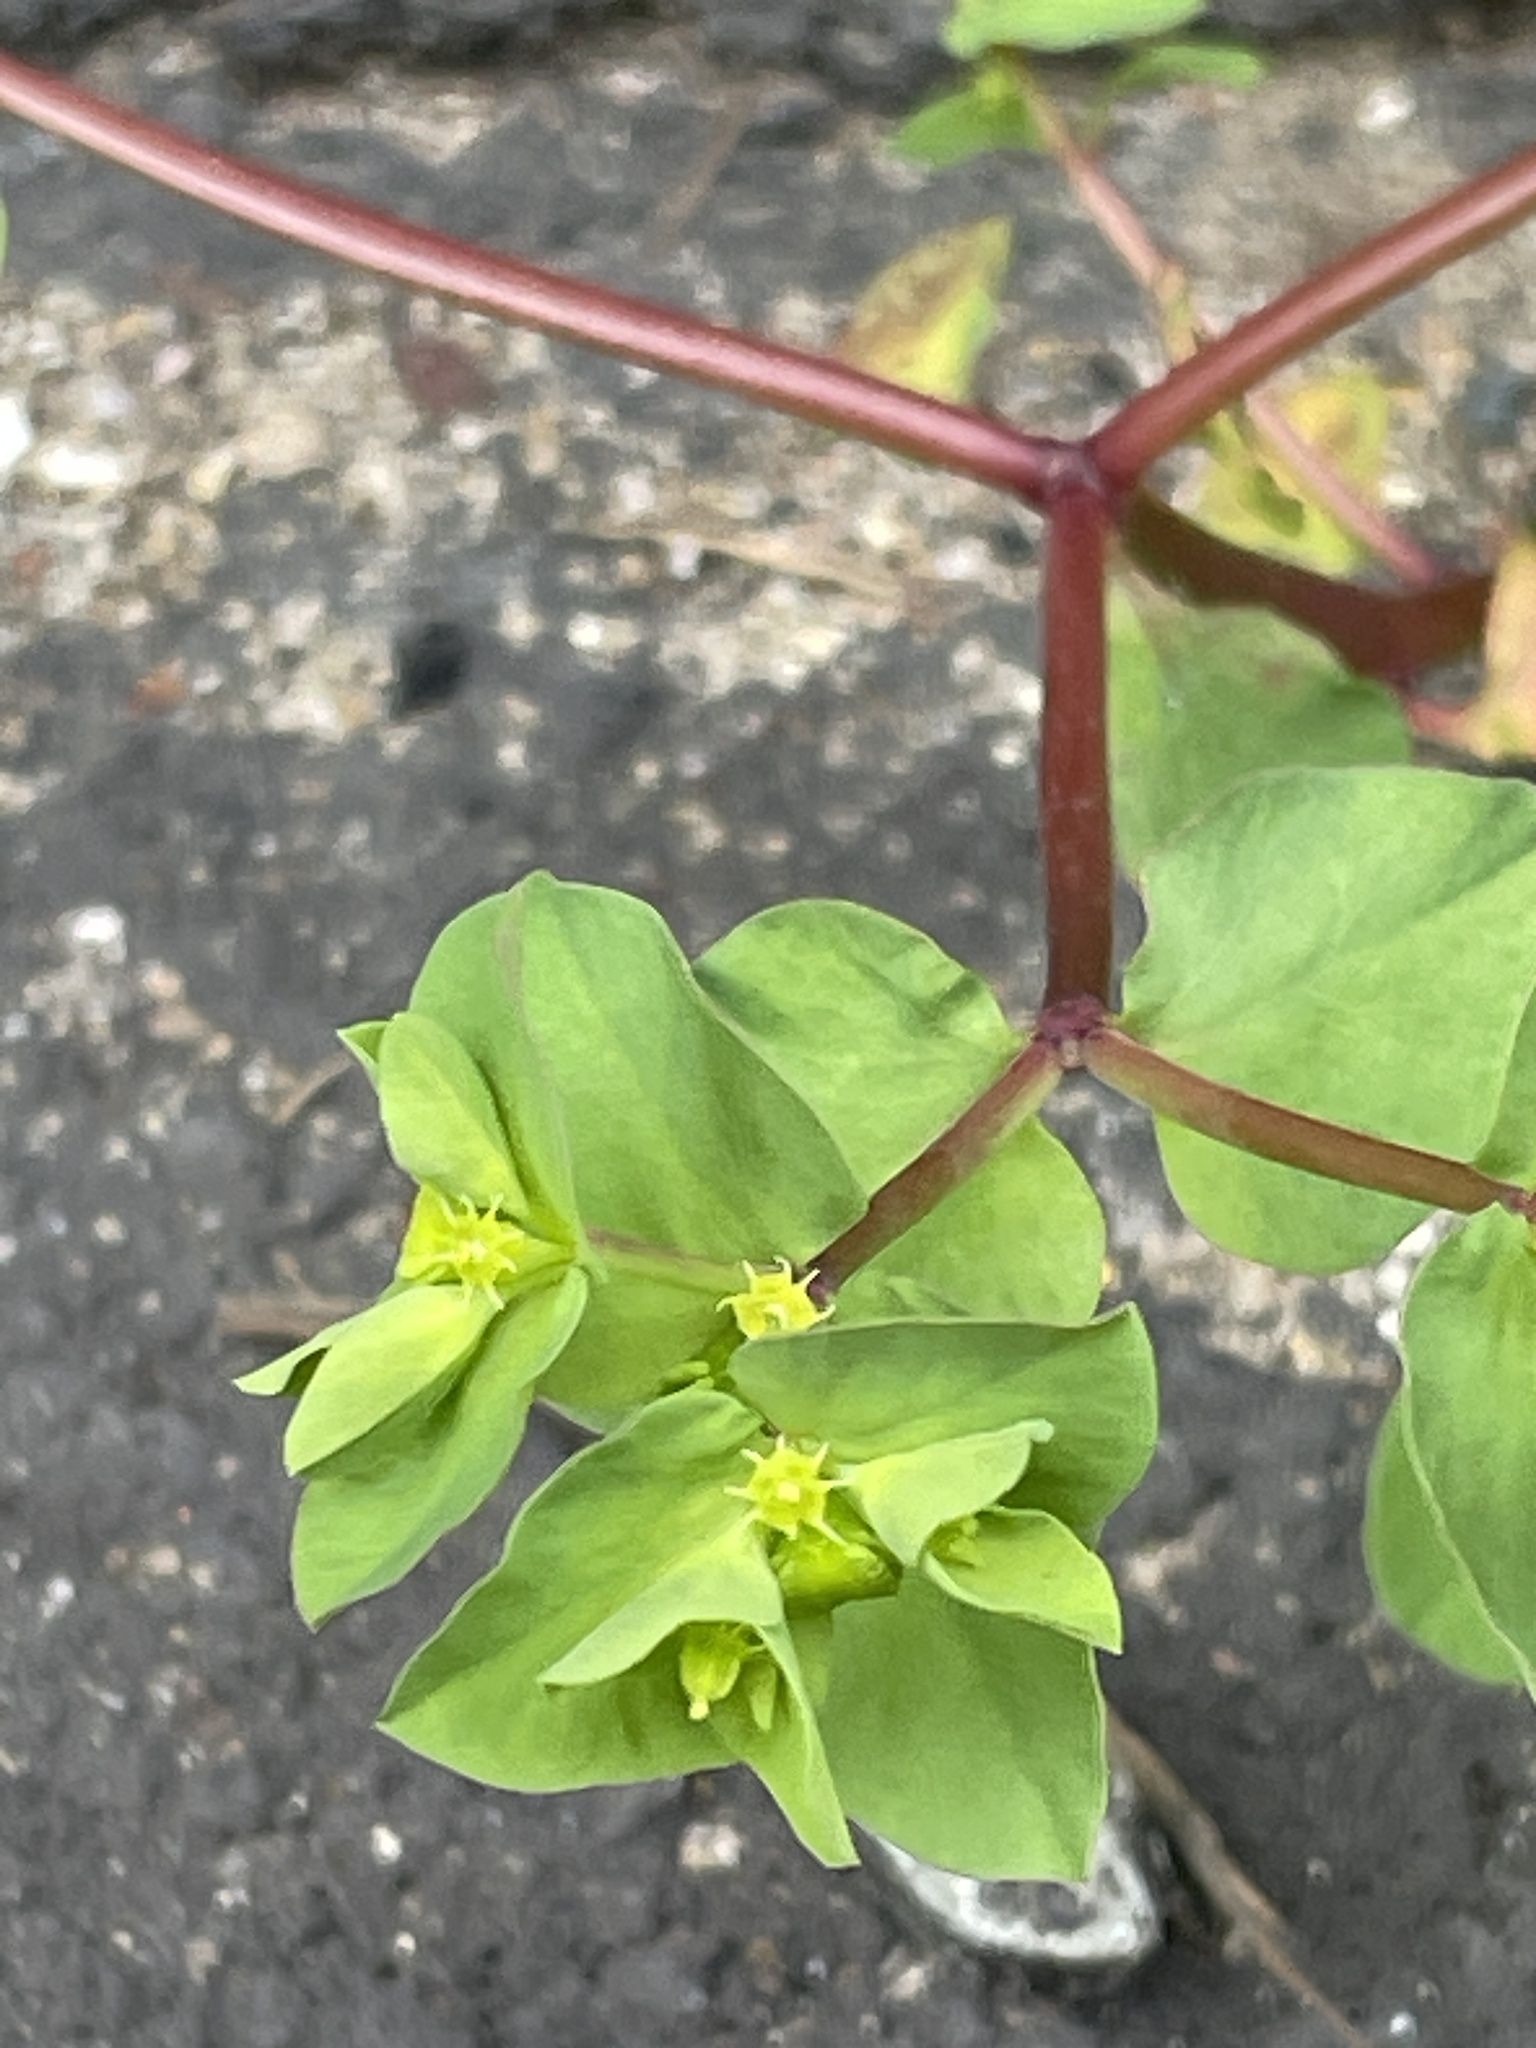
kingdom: Plantae
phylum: Tracheophyta
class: Magnoliopsida
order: Malpighiales
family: Euphorbiaceae
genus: Euphorbia
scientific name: Euphorbia peplus
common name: Petty spurge
